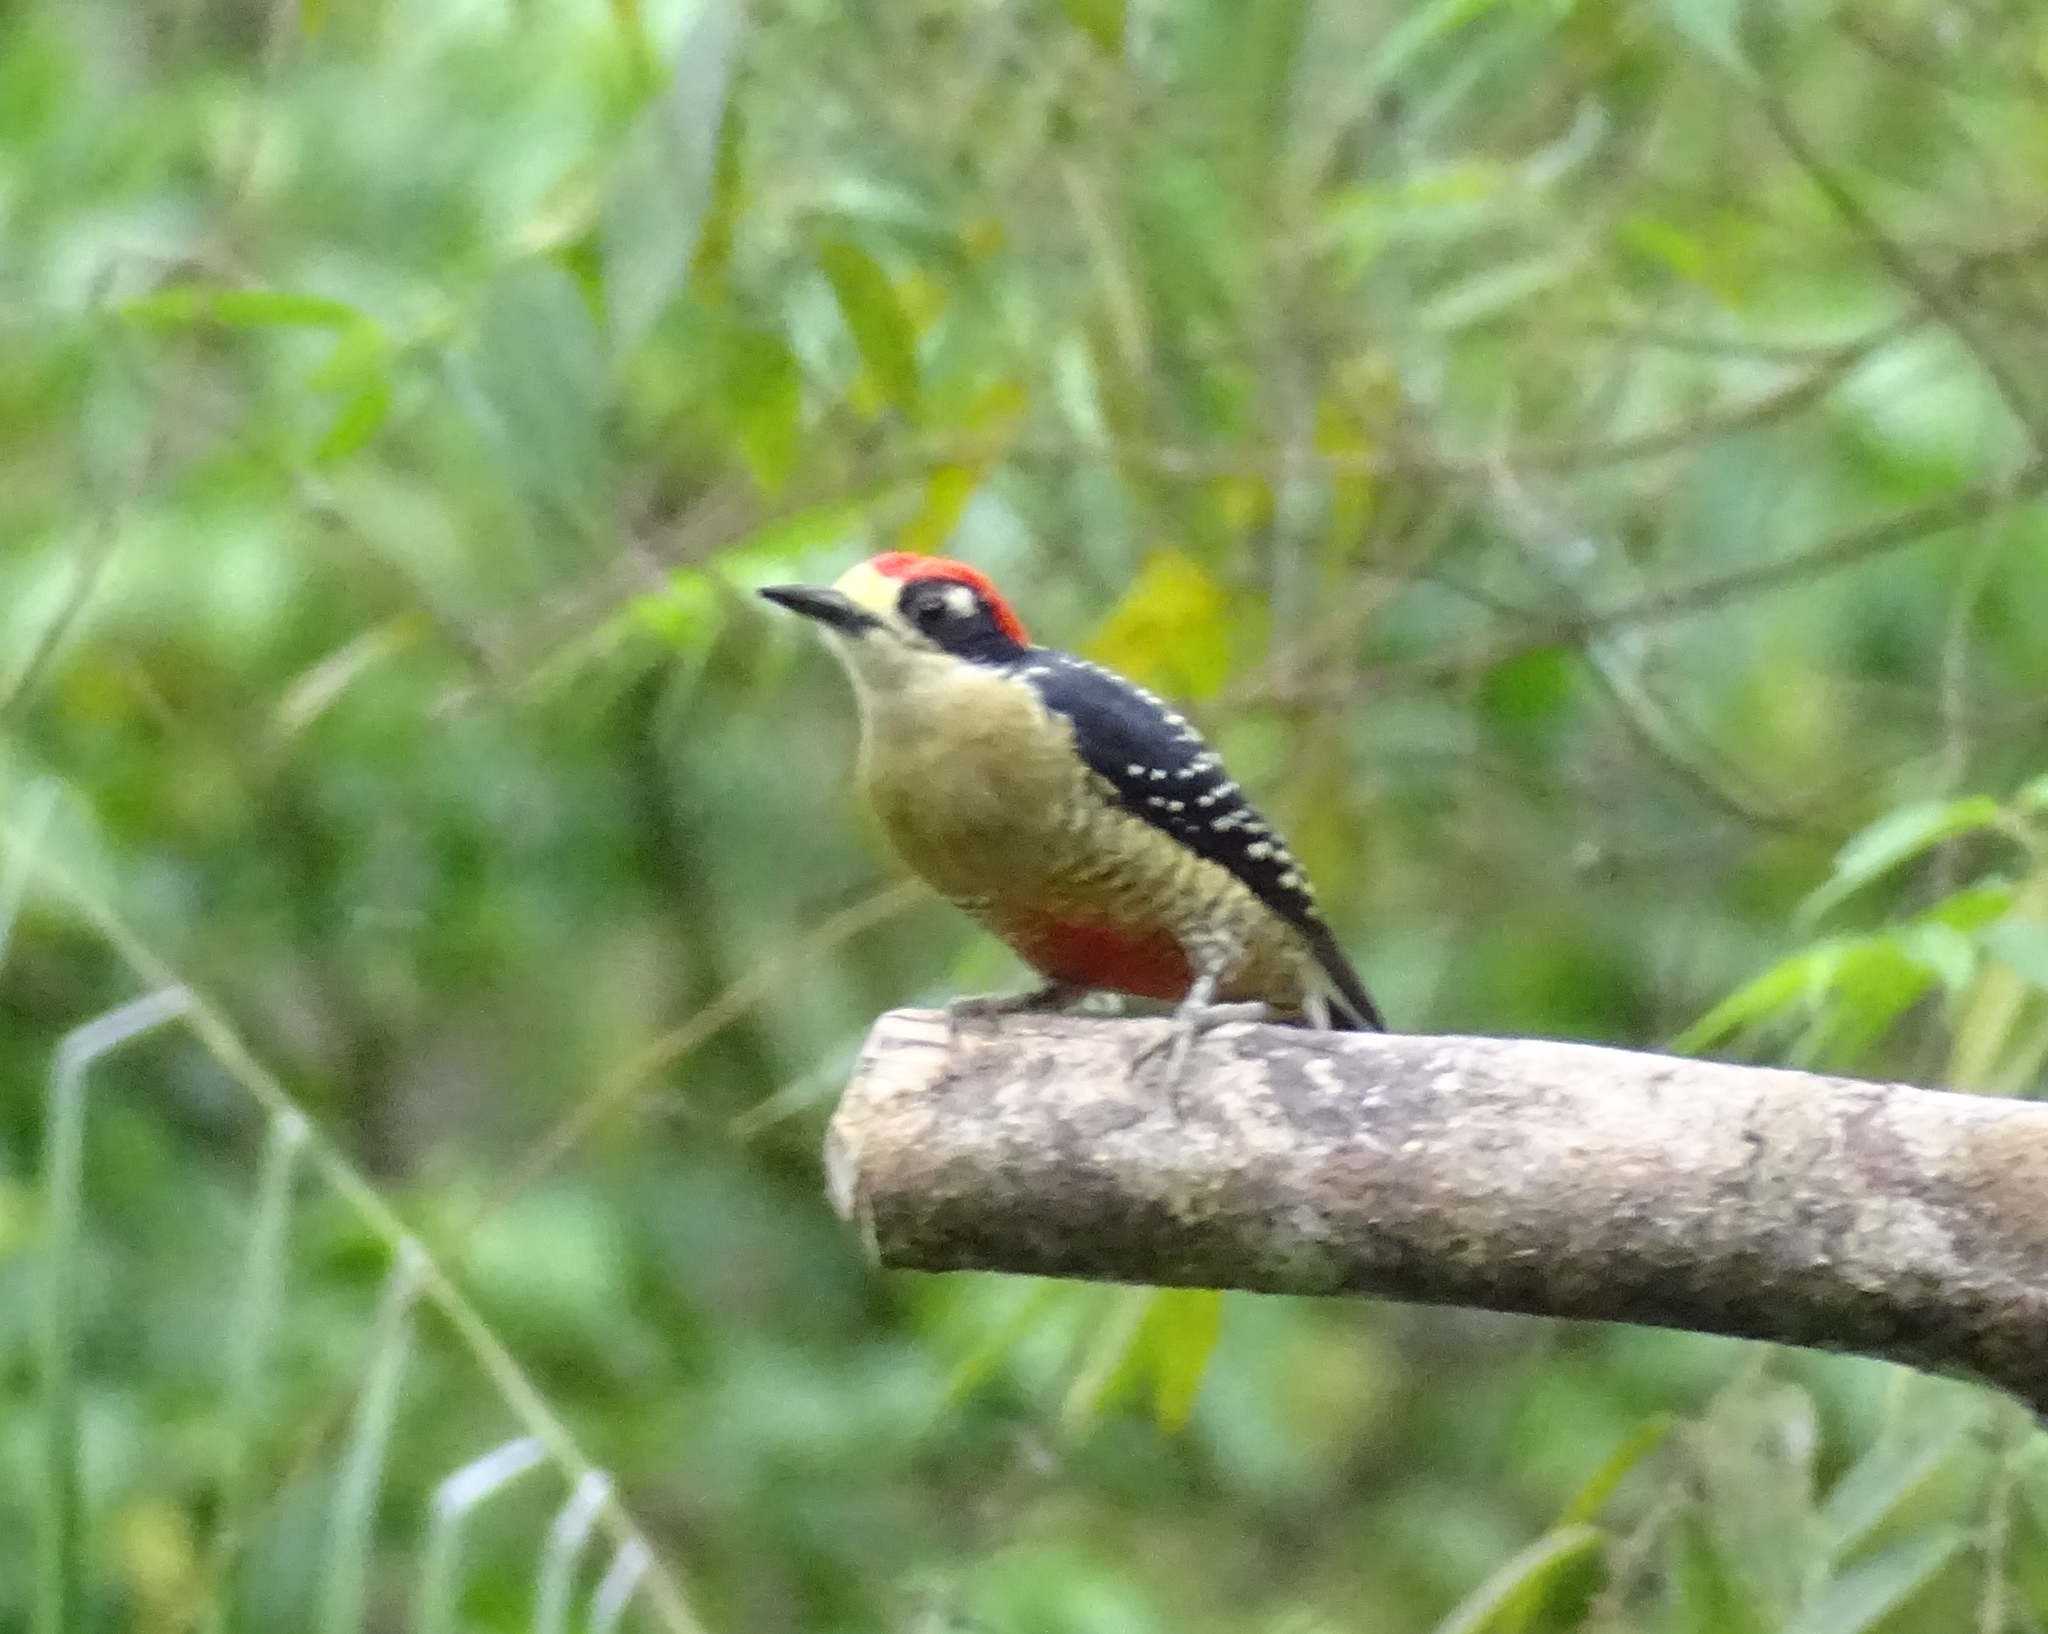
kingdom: Animalia
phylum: Chordata
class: Aves
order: Piciformes
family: Picidae
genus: Melanerpes
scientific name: Melanerpes pucherani
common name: Black-cheeked woodpecker
